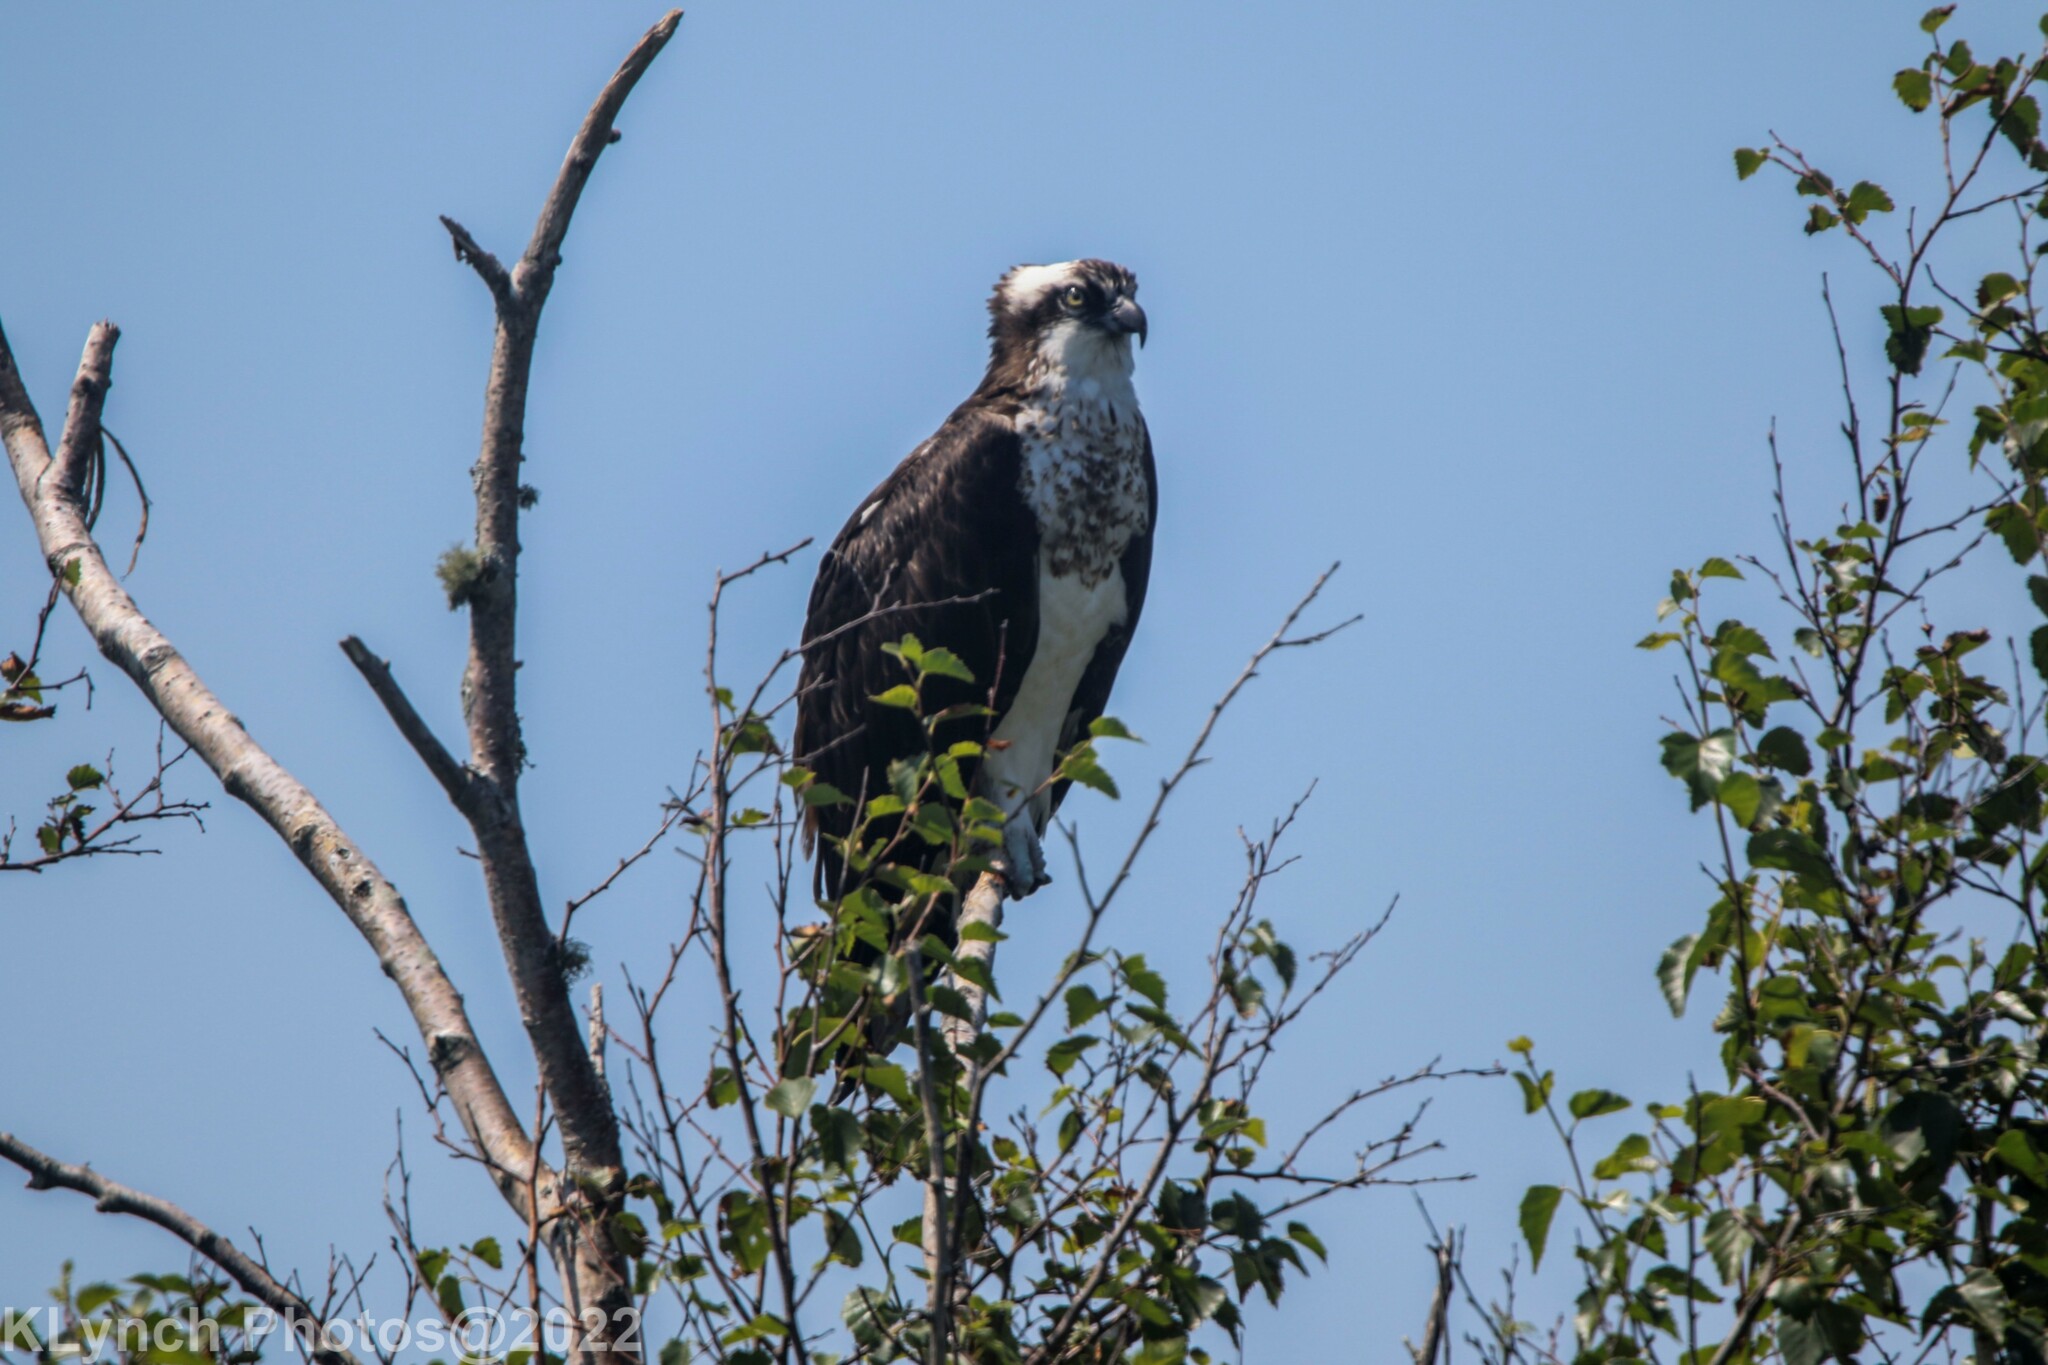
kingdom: Animalia
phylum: Chordata
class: Aves
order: Accipitriformes
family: Pandionidae
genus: Pandion
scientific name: Pandion haliaetus
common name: Osprey
